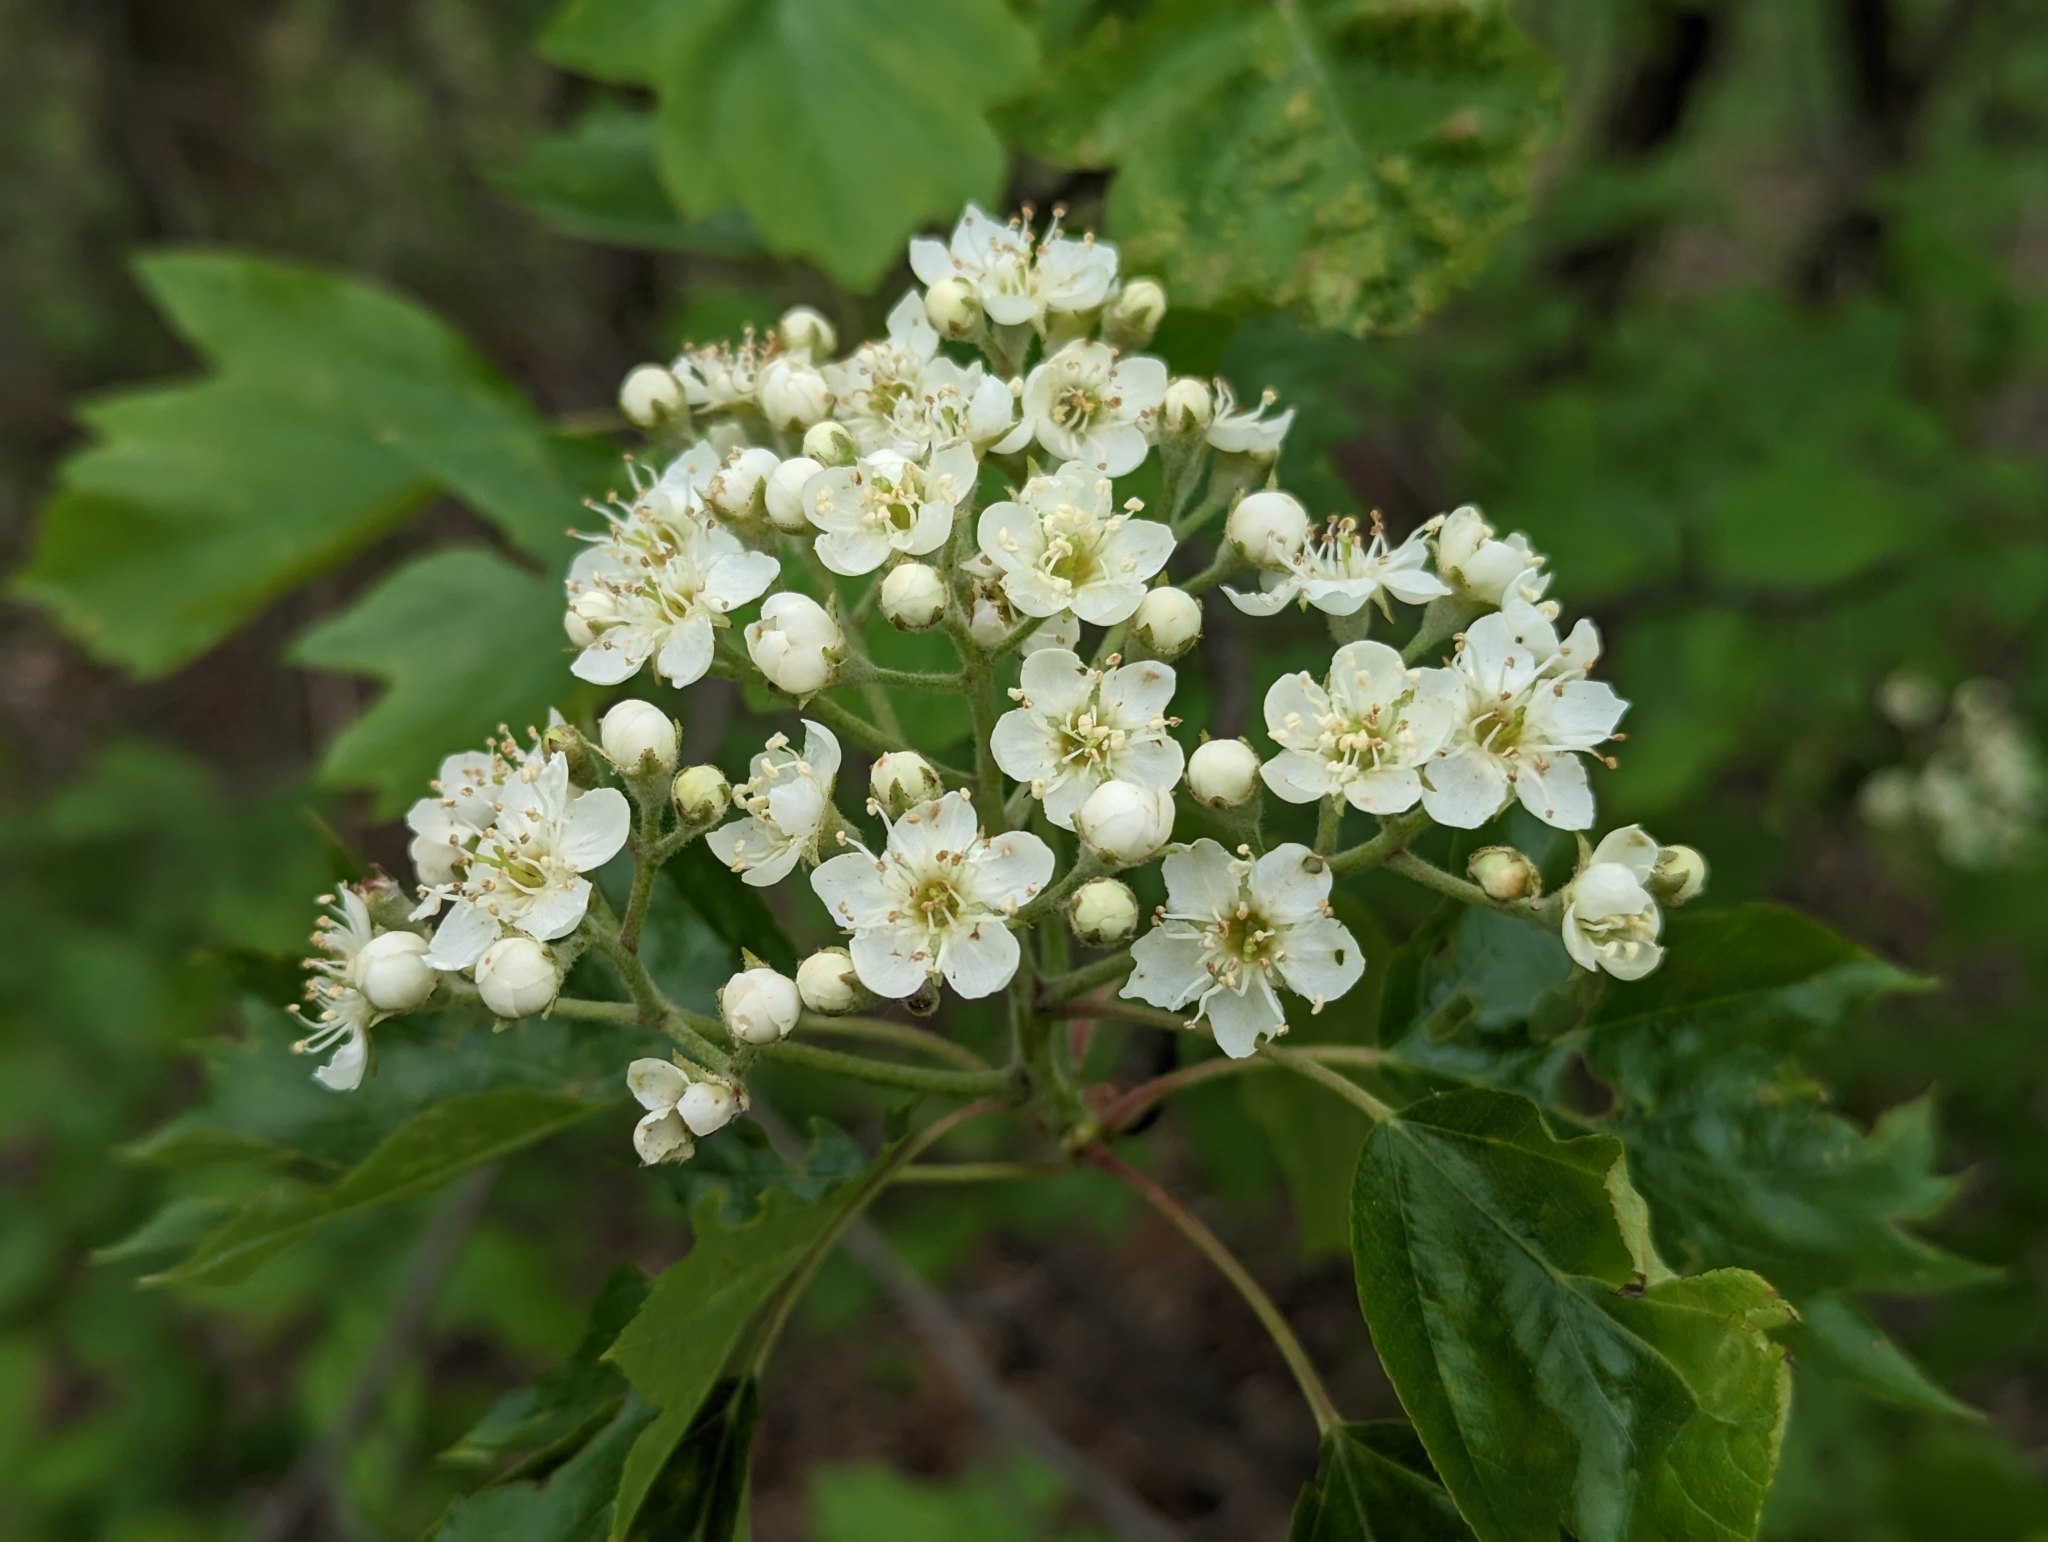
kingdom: Plantae
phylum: Tracheophyta
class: Magnoliopsida
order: Rosales
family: Rosaceae
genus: Torminalis
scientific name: Torminalis glaberrima
